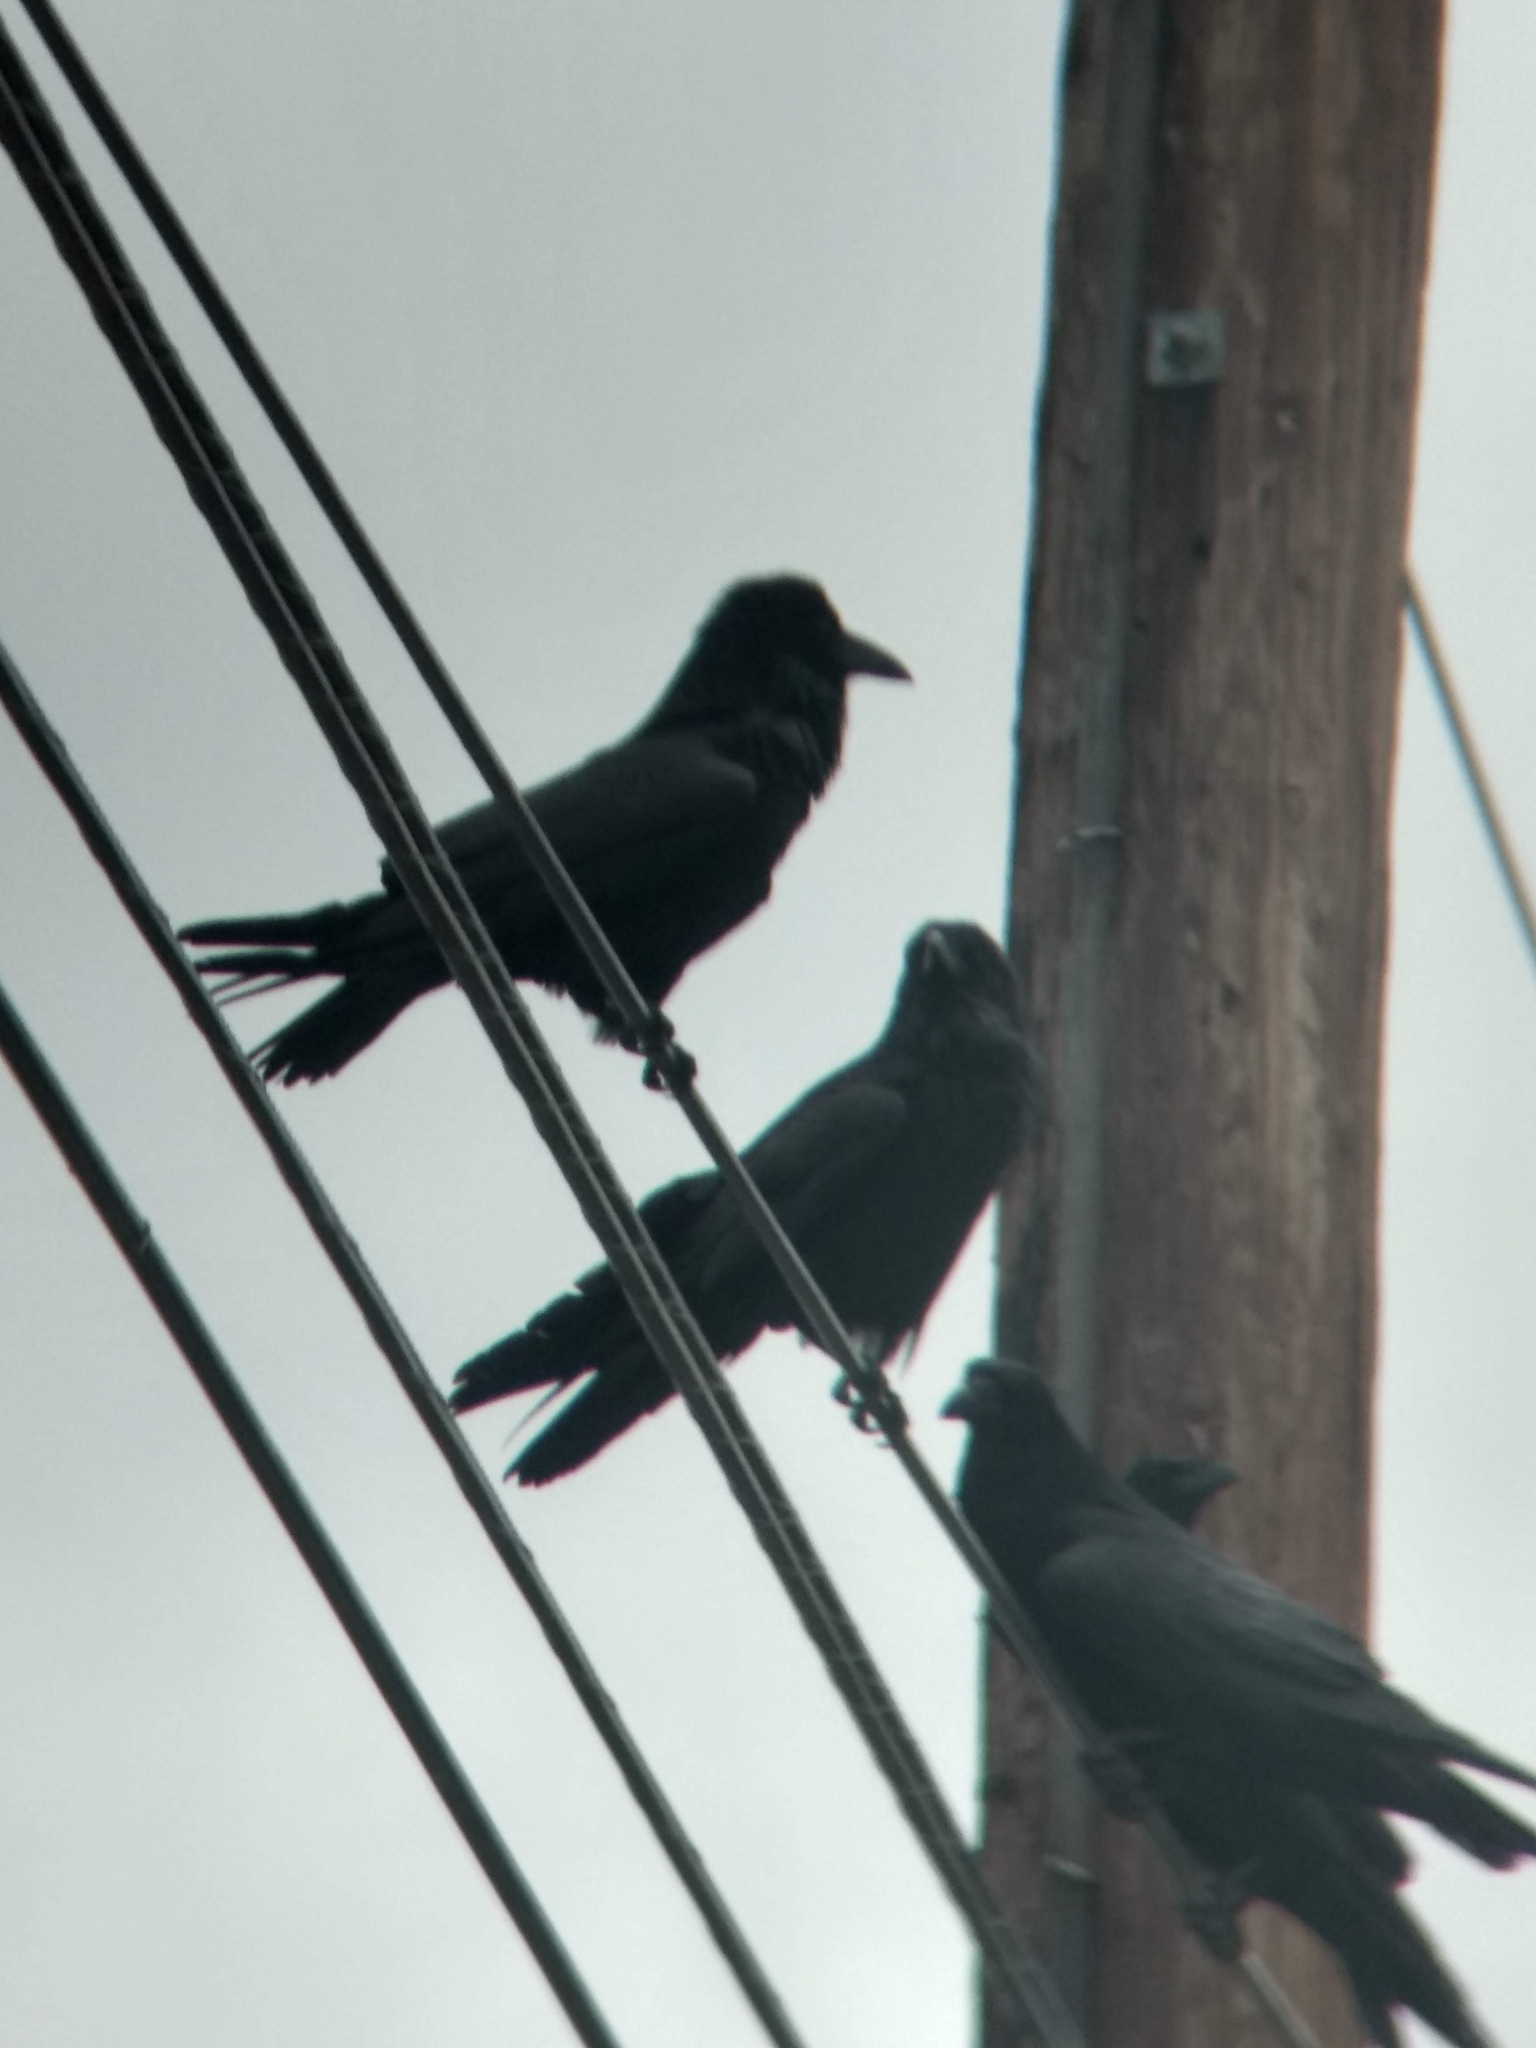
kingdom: Animalia
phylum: Chordata
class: Aves
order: Passeriformes
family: Corvidae
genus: Corvus
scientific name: Corvus corax
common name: Common raven
